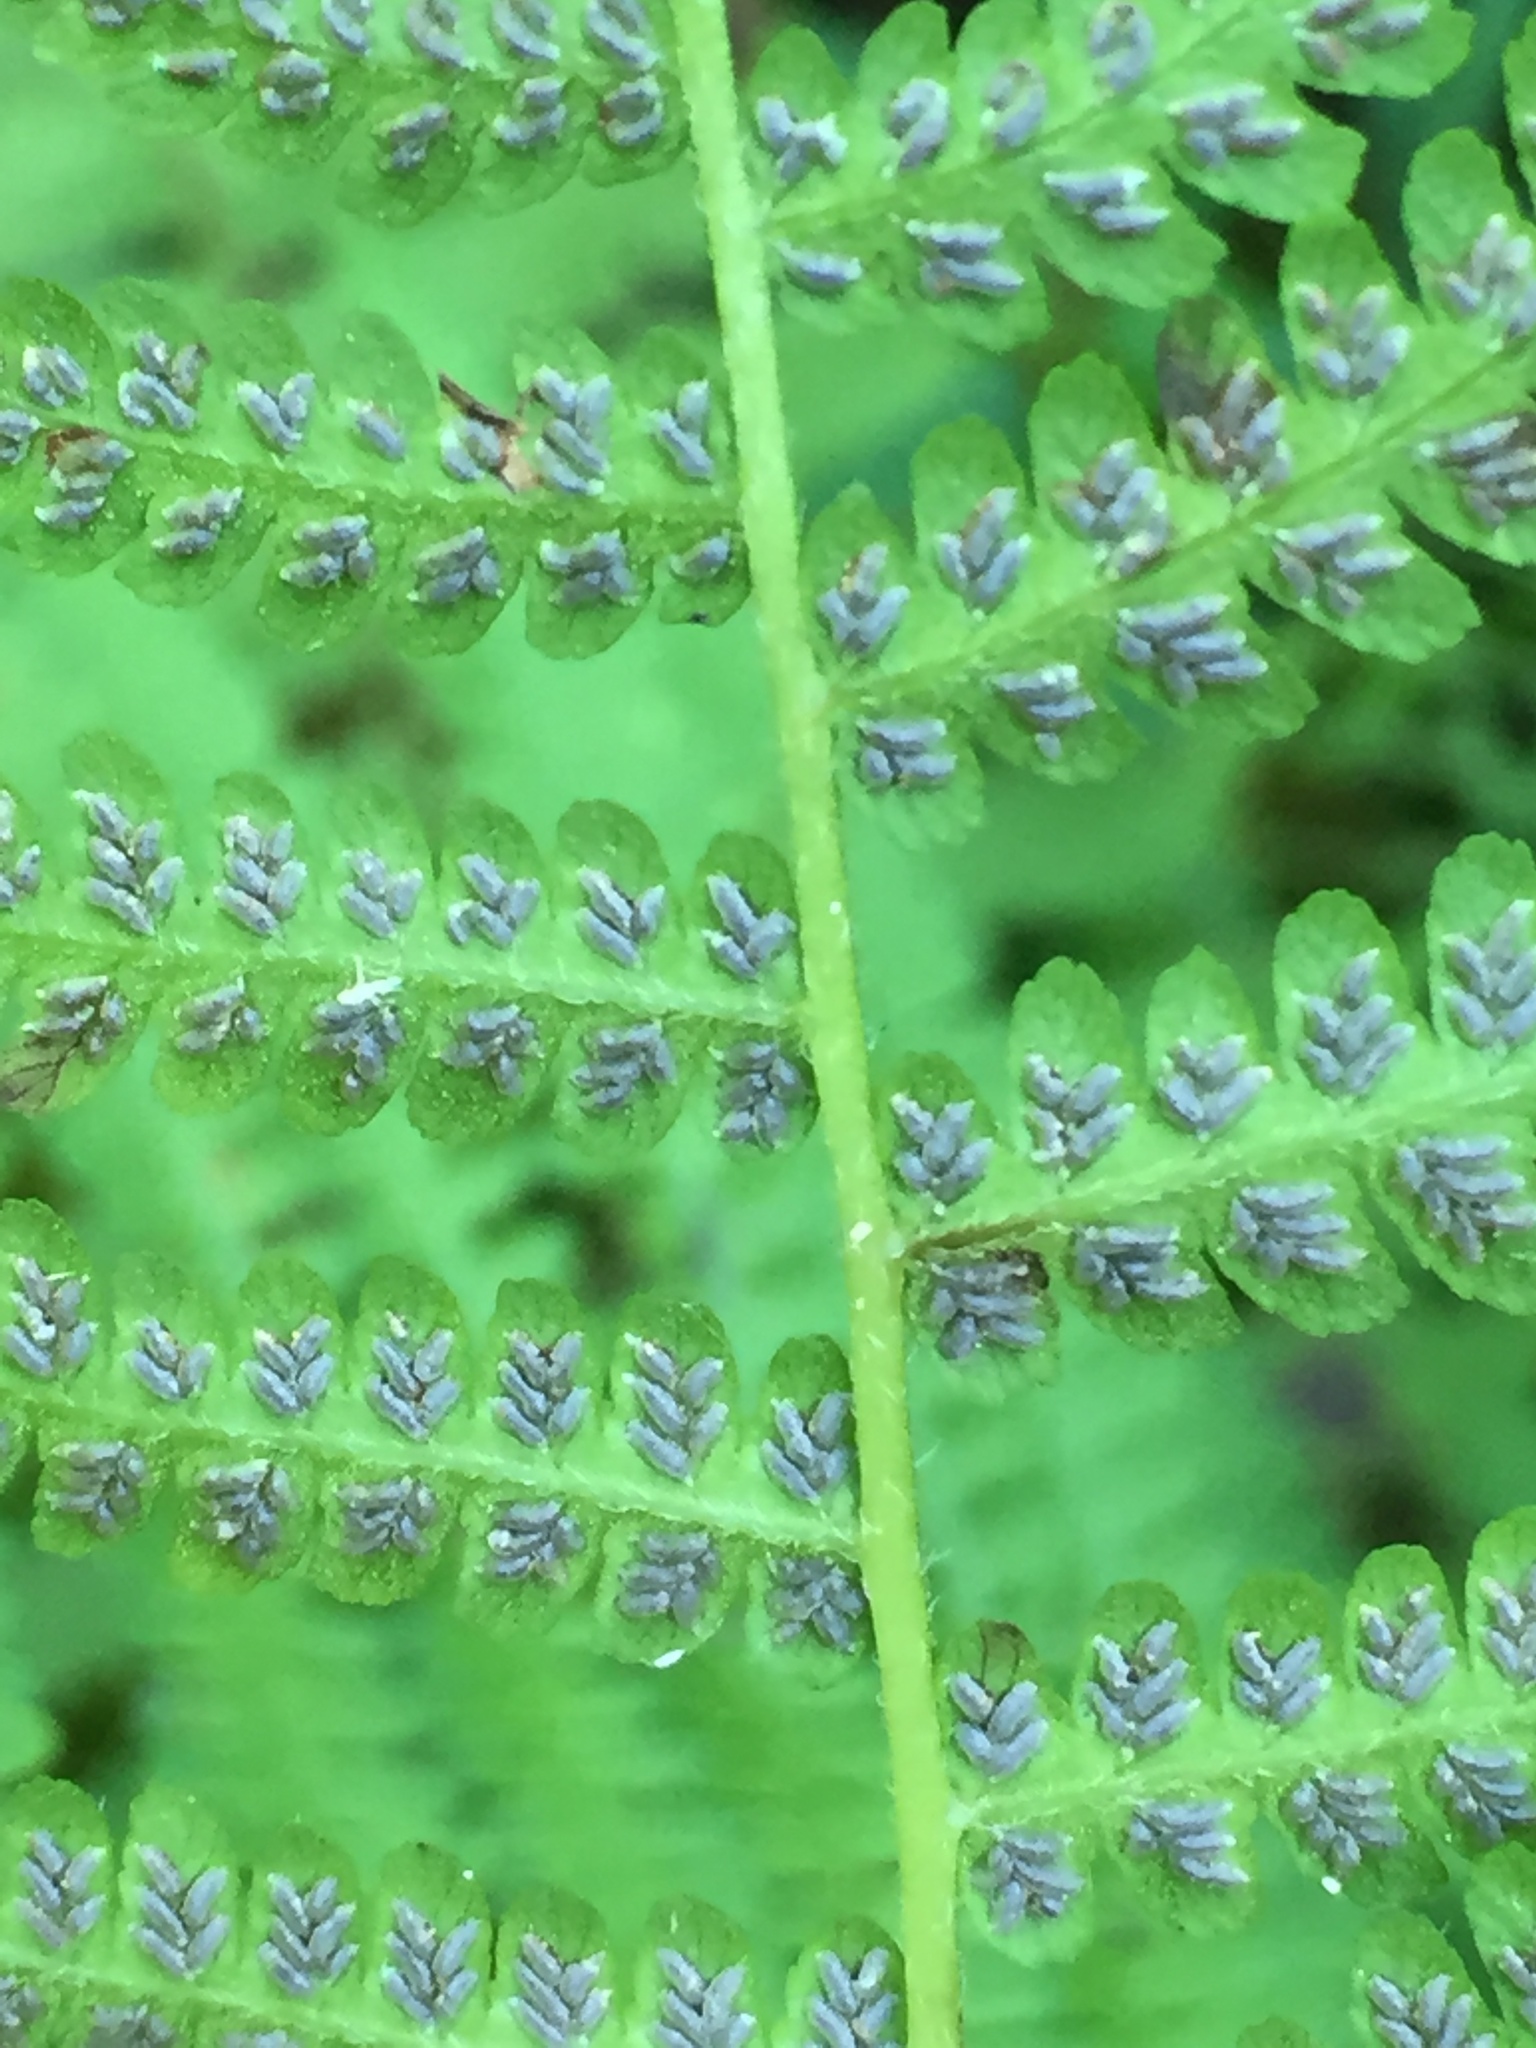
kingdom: Plantae
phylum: Tracheophyta
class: Polypodiopsida
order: Polypodiales
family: Athyriaceae
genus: Deparia
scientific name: Deparia acrostichoides
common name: Silver false spleenwort
